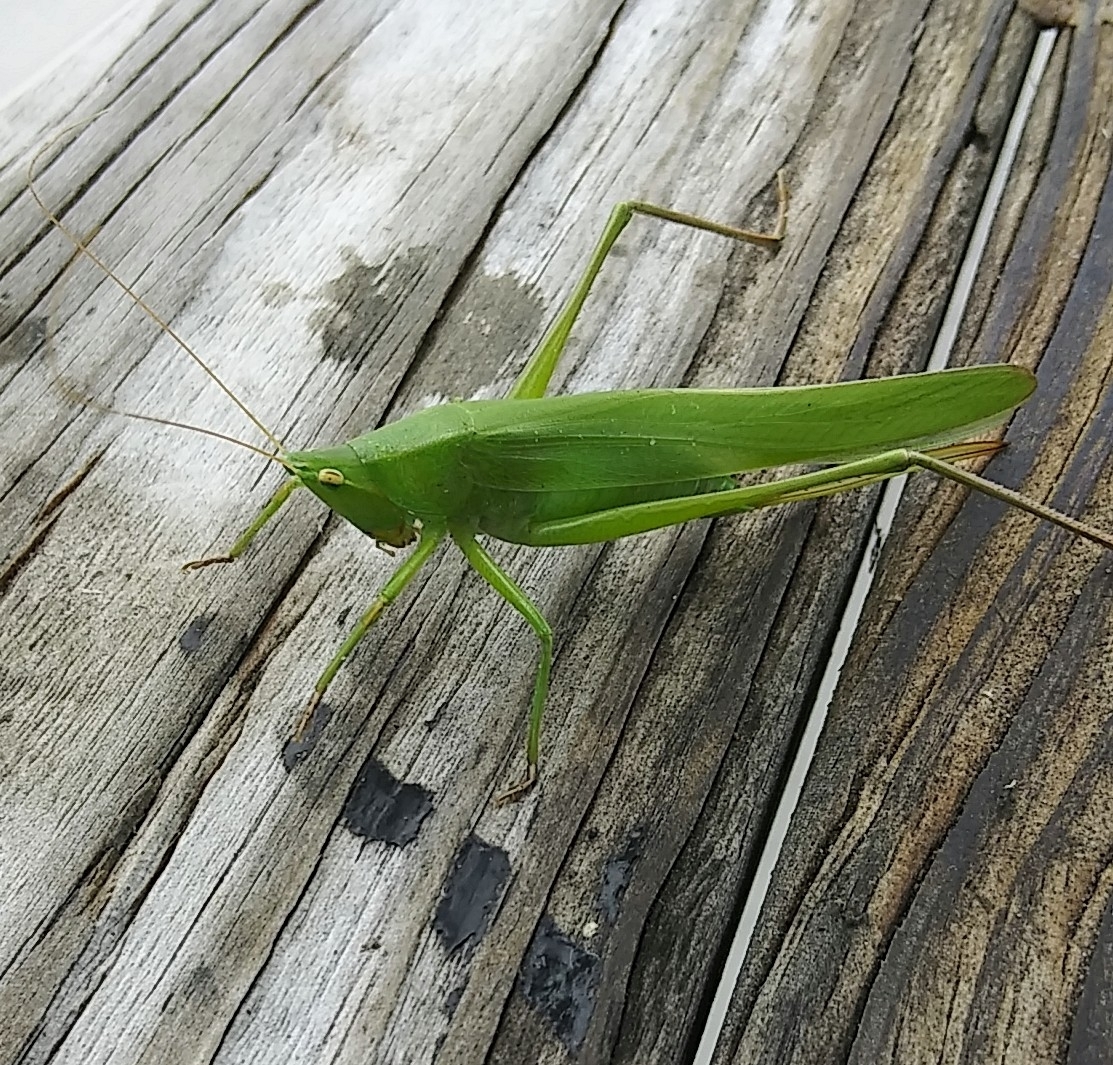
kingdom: Animalia
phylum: Arthropoda
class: Insecta
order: Orthoptera
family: Tettigoniidae
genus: Neoconocephalus
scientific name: Neoconocephalus triops
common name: Broad-tipped conehead
